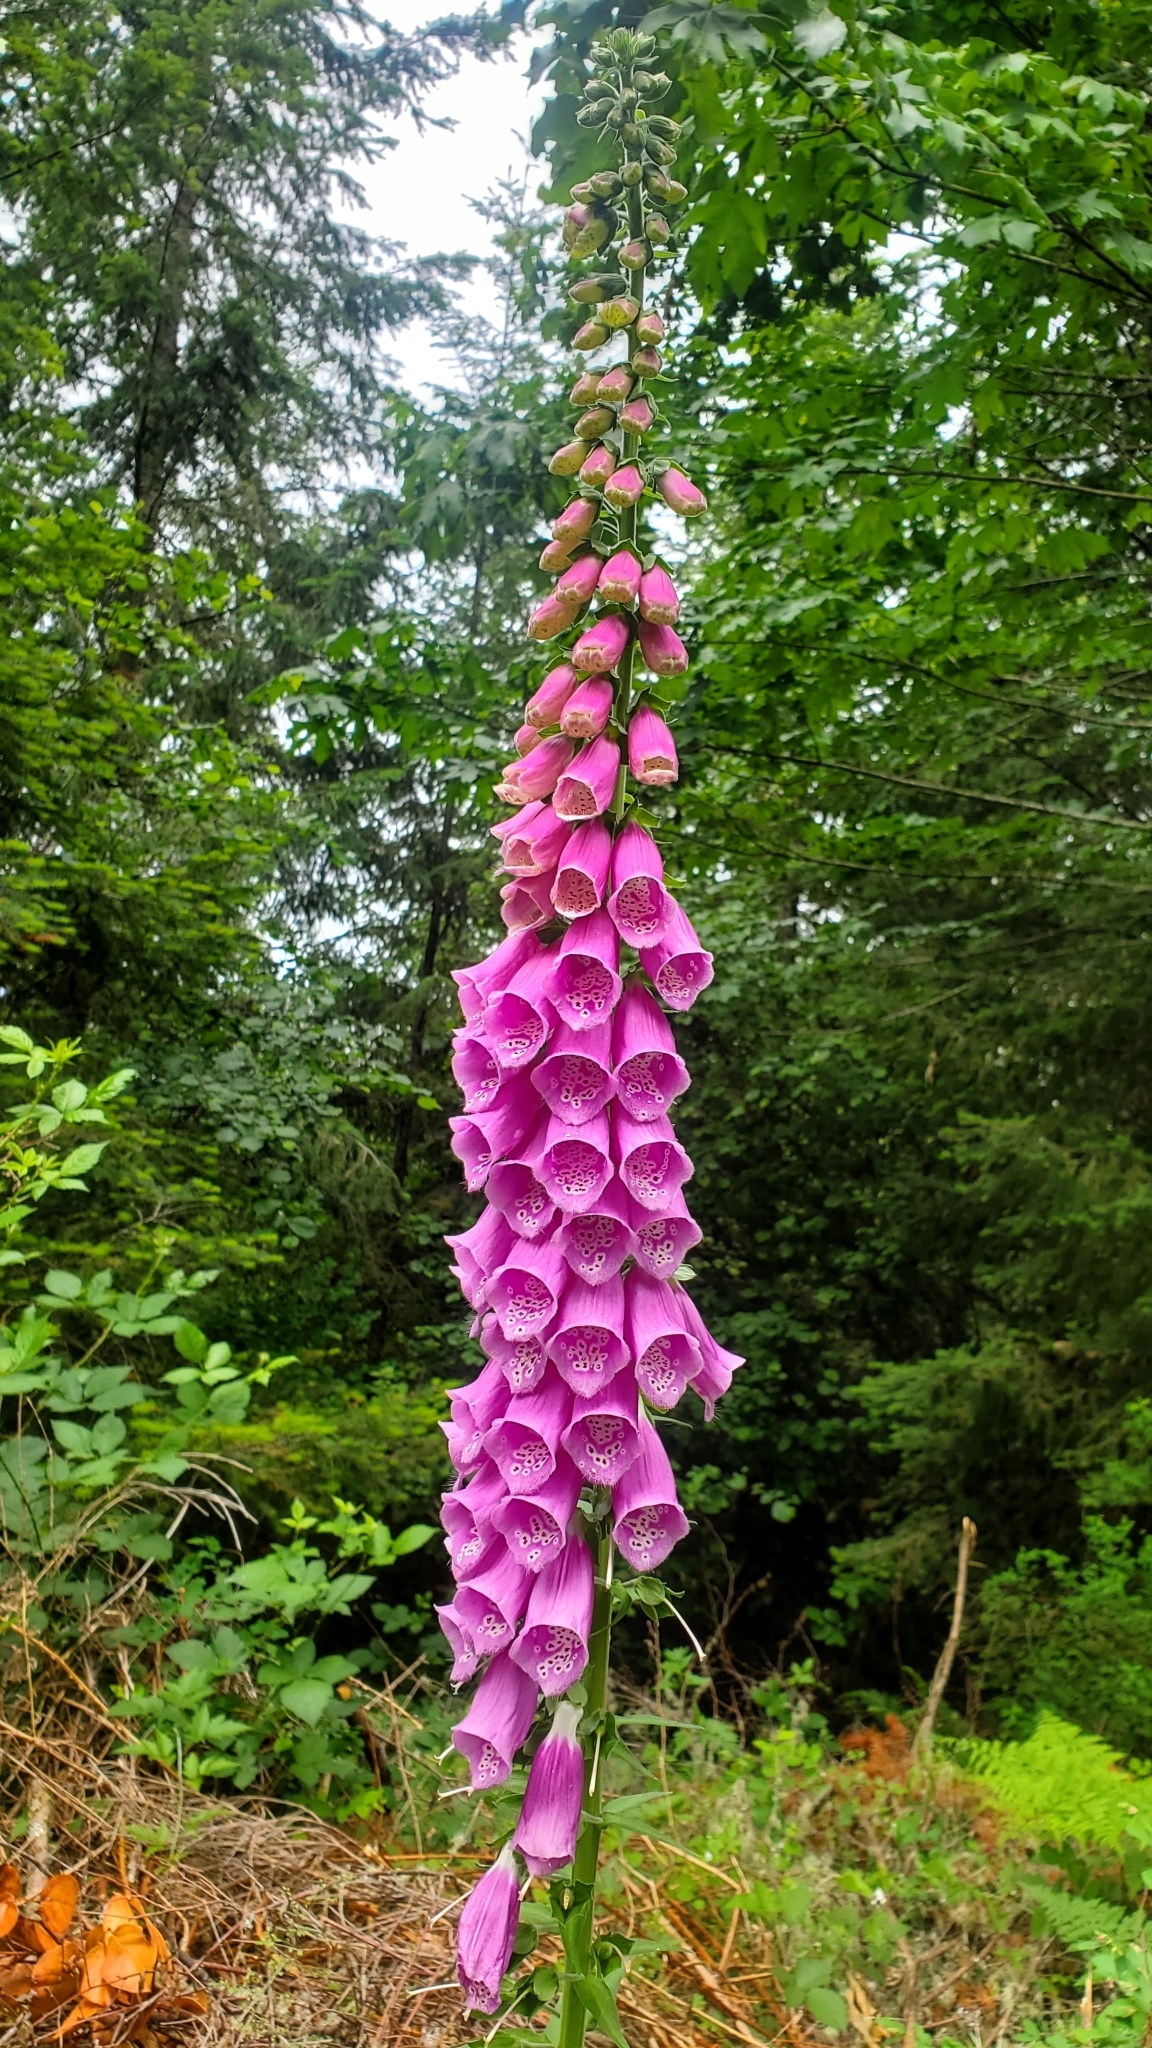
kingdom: Plantae
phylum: Tracheophyta
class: Magnoliopsida
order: Lamiales
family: Plantaginaceae
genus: Digitalis
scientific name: Digitalis purpurea
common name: Foxglove
